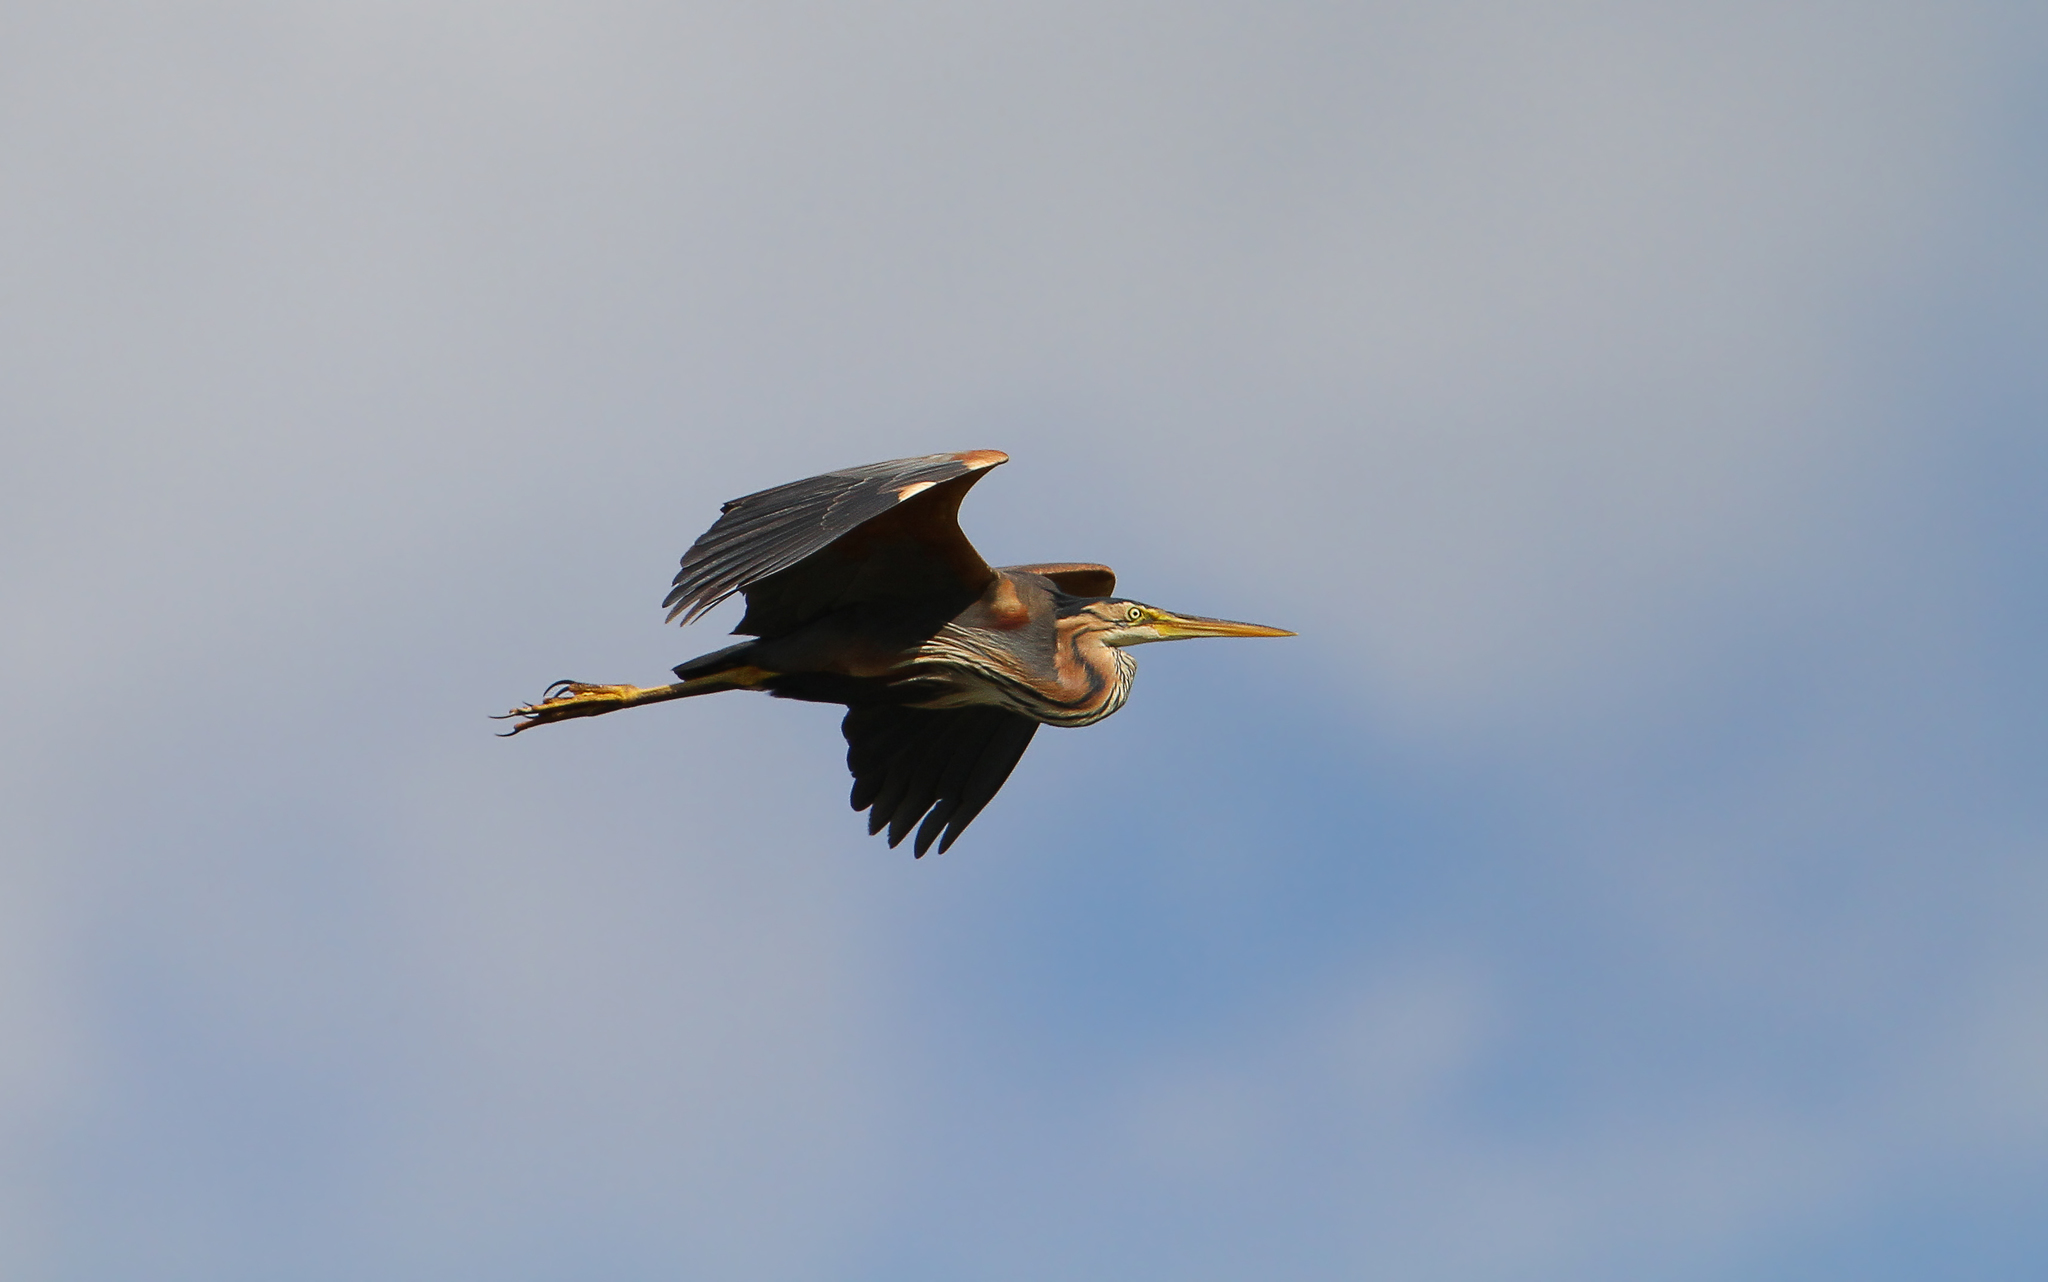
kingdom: Animalia
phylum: Chordata
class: Aves
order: Pelecaniformes
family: Ardeidae
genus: Ardea
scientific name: Ardea purpurea
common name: Purple heron
